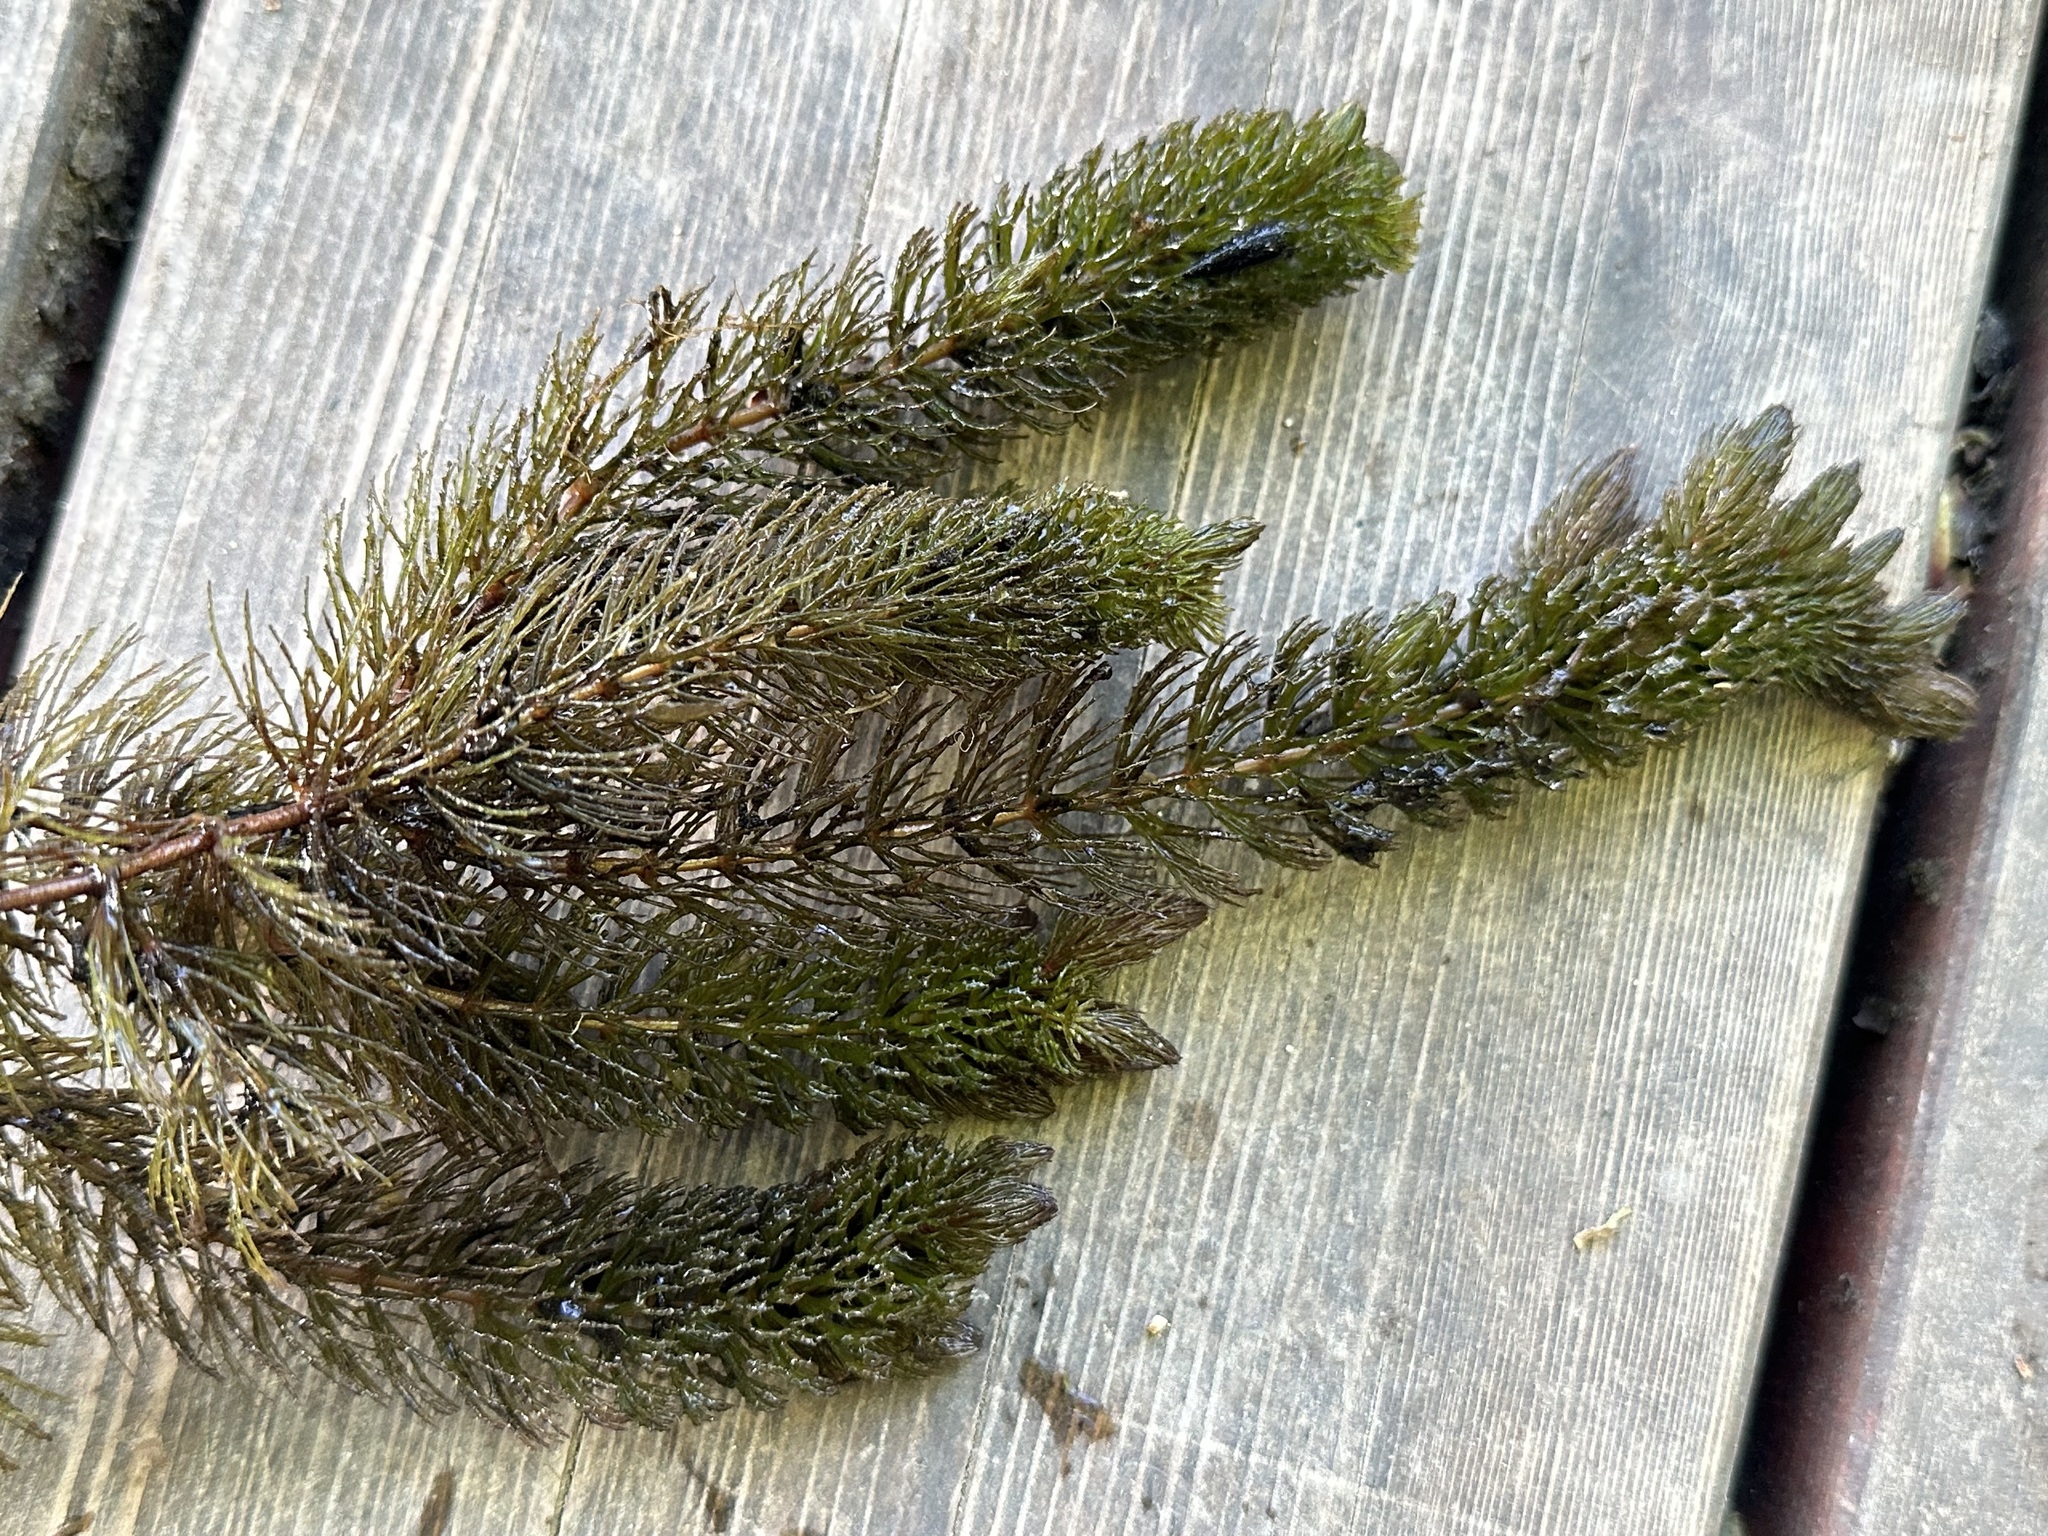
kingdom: Plantae
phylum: Tracheophyta
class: Magnoliopsida
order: Ceratophyllales
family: Ceratophyllaceae
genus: Ceratophyllum
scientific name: Ceratophyllum demersum
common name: Rigid hornwort
